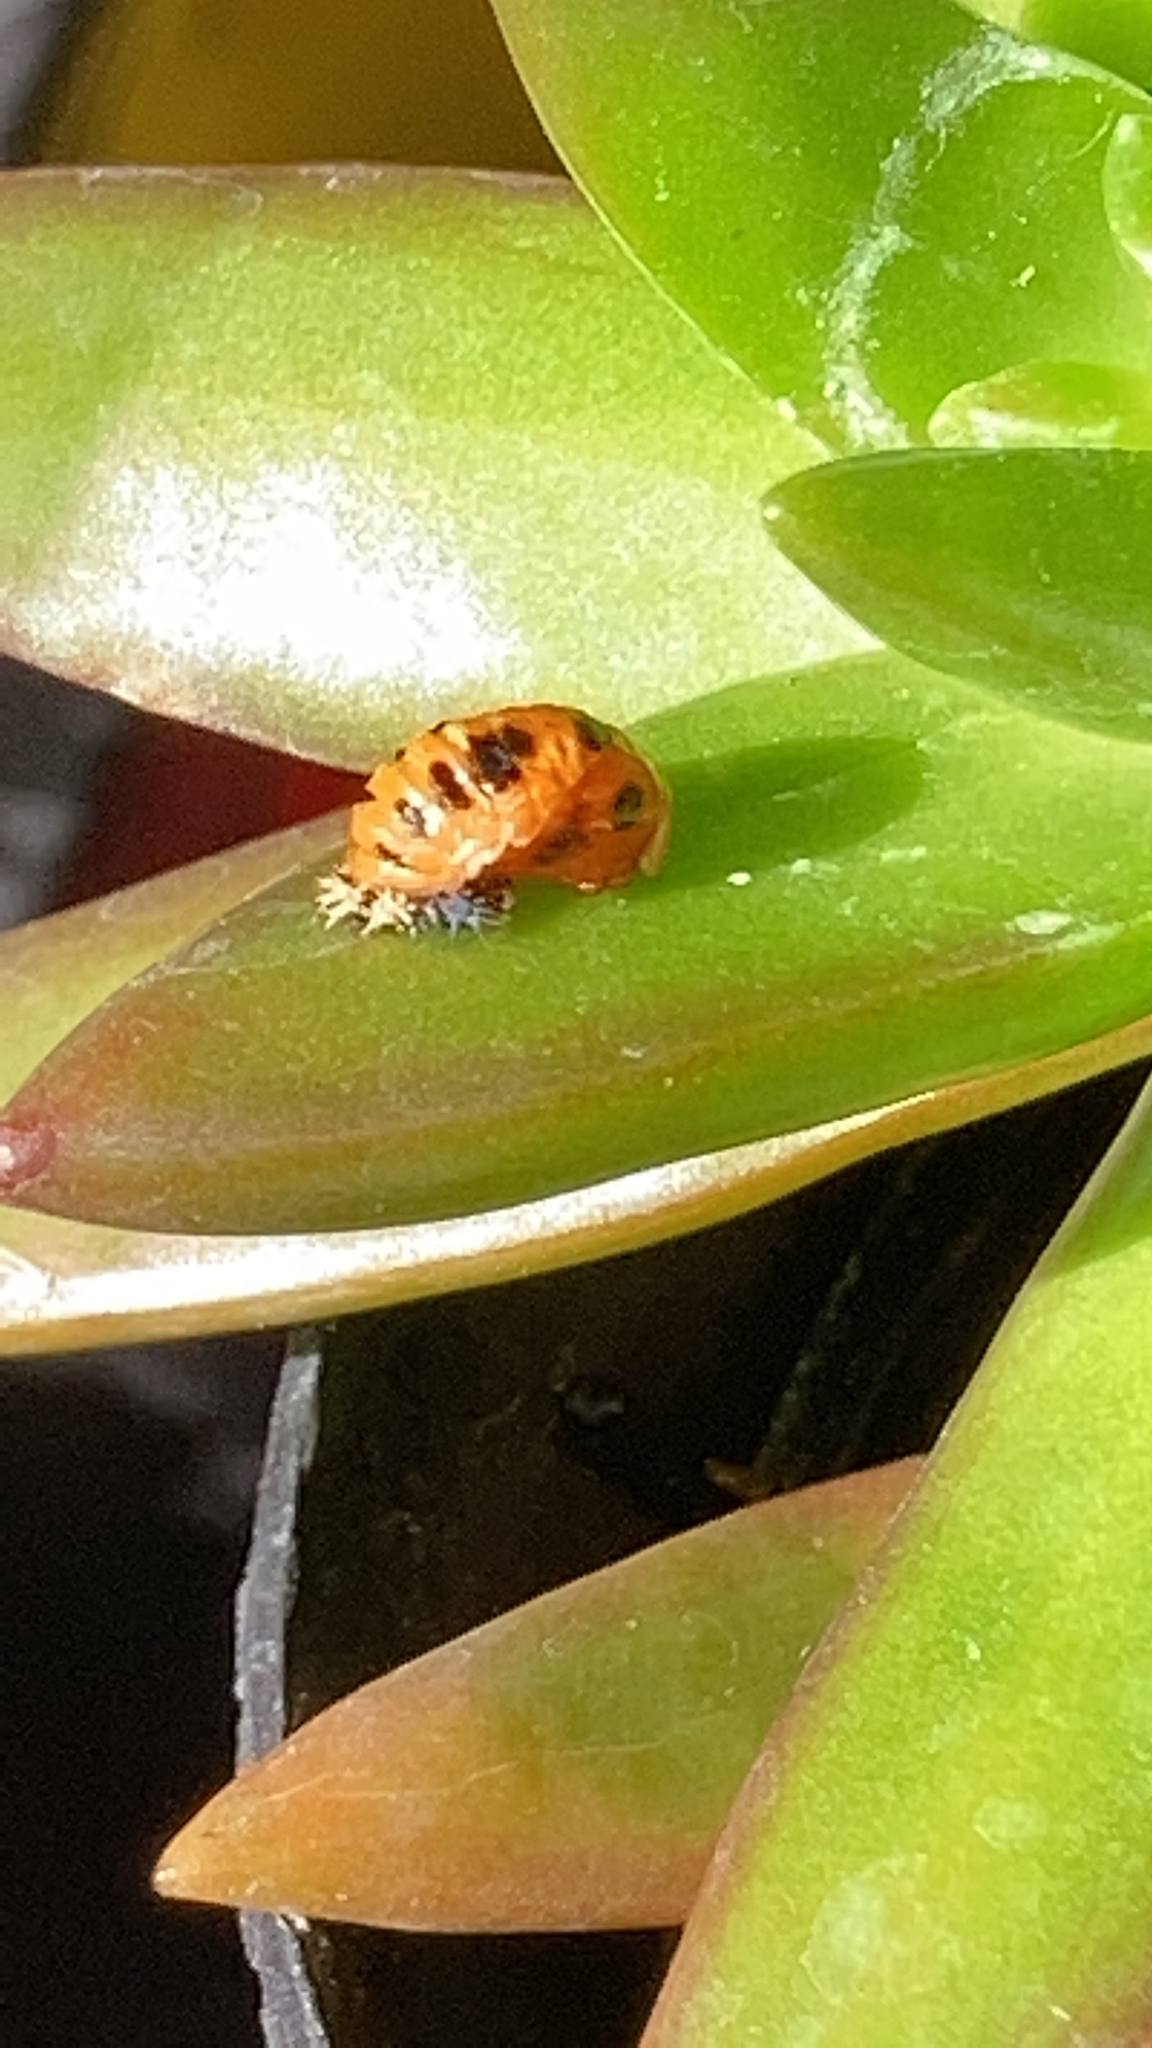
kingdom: Animalia
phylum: Arthropoda
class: Insecta
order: Coleoptera
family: Coccinellidae
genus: Harmonia
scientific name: Harmonia axyridis
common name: Harlequin ladybird
